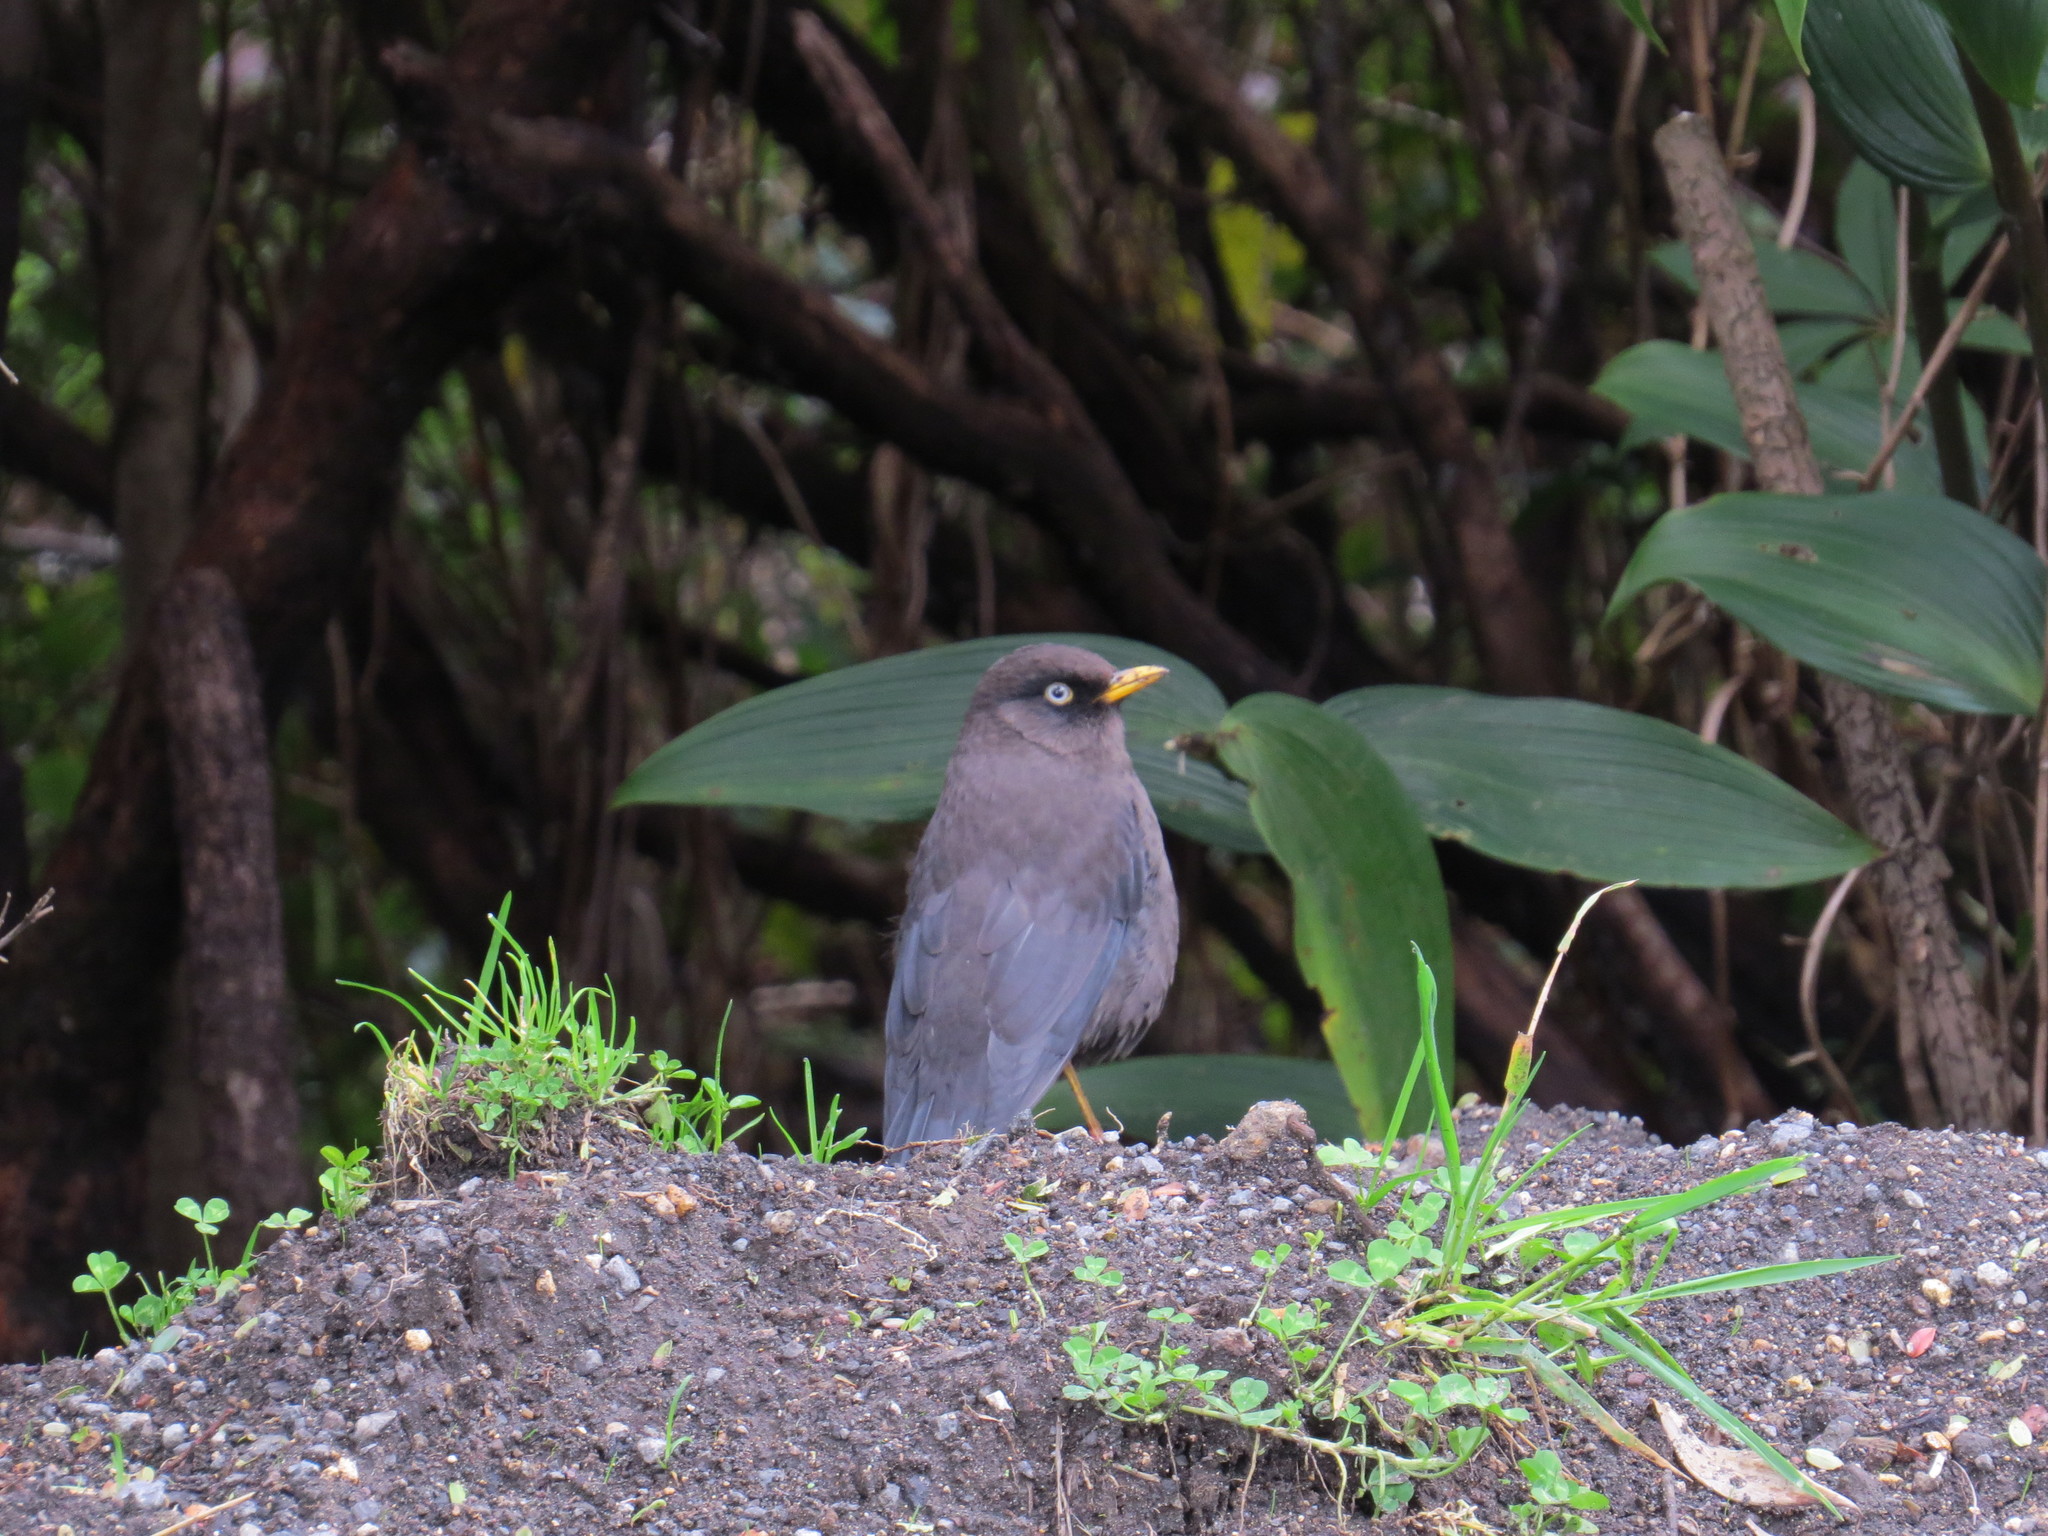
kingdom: Animalia
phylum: Chordata
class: Aves
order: Passeriformes
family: Turdidae
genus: Turdus
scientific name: Turdus nigrescens
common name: Sooty thrush
